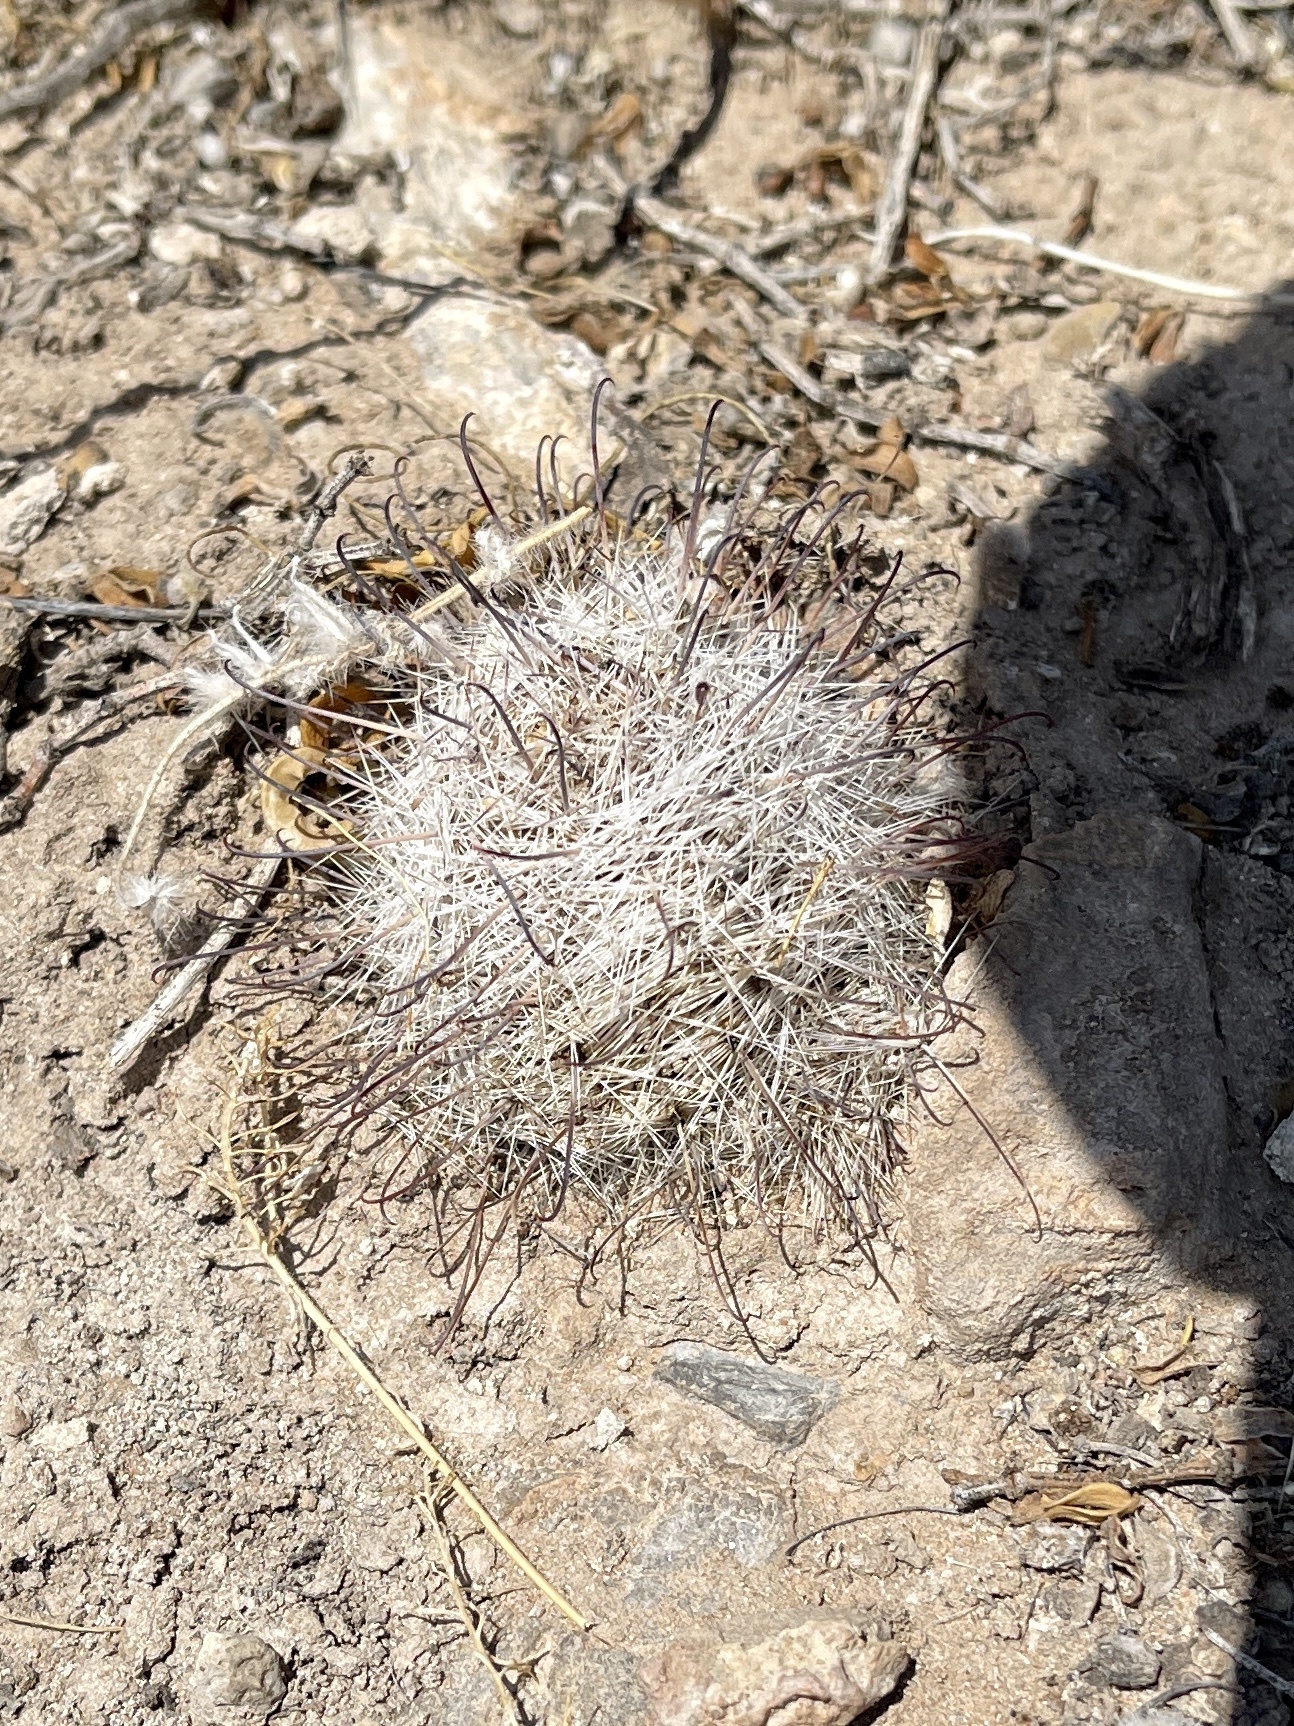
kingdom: Plantae
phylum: Tracheophyta
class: Magnoliopsida
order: Caryophyllales
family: Cactaceae
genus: Cochemiea
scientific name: Cochemiea grahamii
